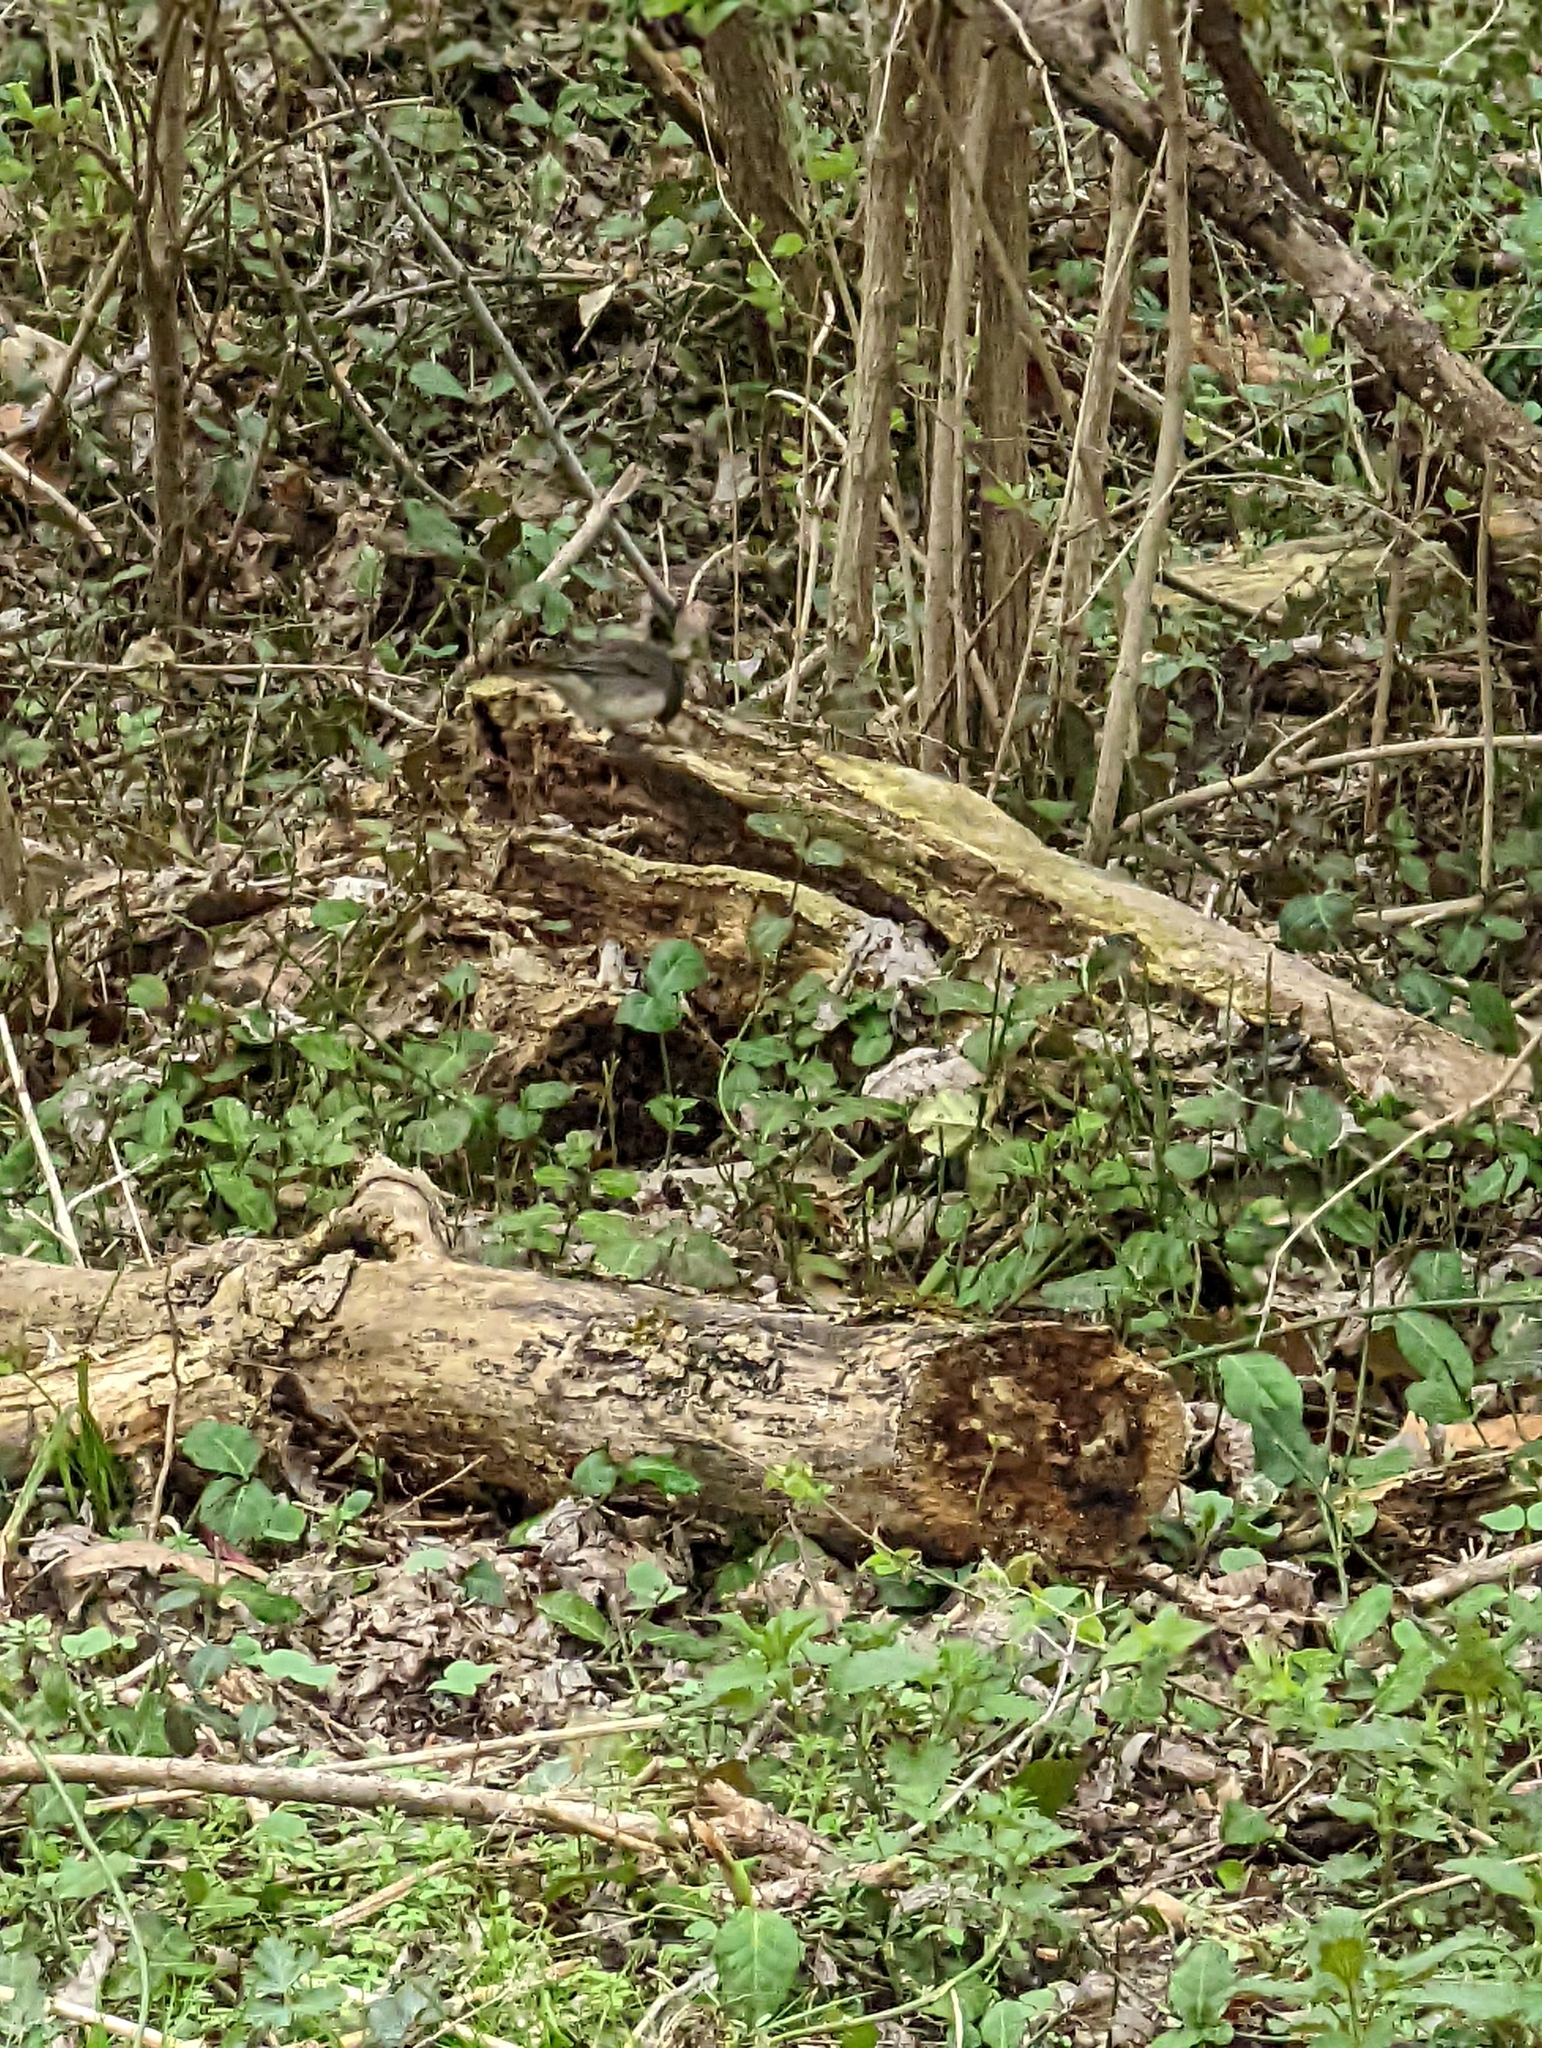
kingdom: Animalia
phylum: Chordata
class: Aves
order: Passeriformes
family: Passerellidae
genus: Junco
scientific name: Junco hyemalis
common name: Dark-eyed junco
